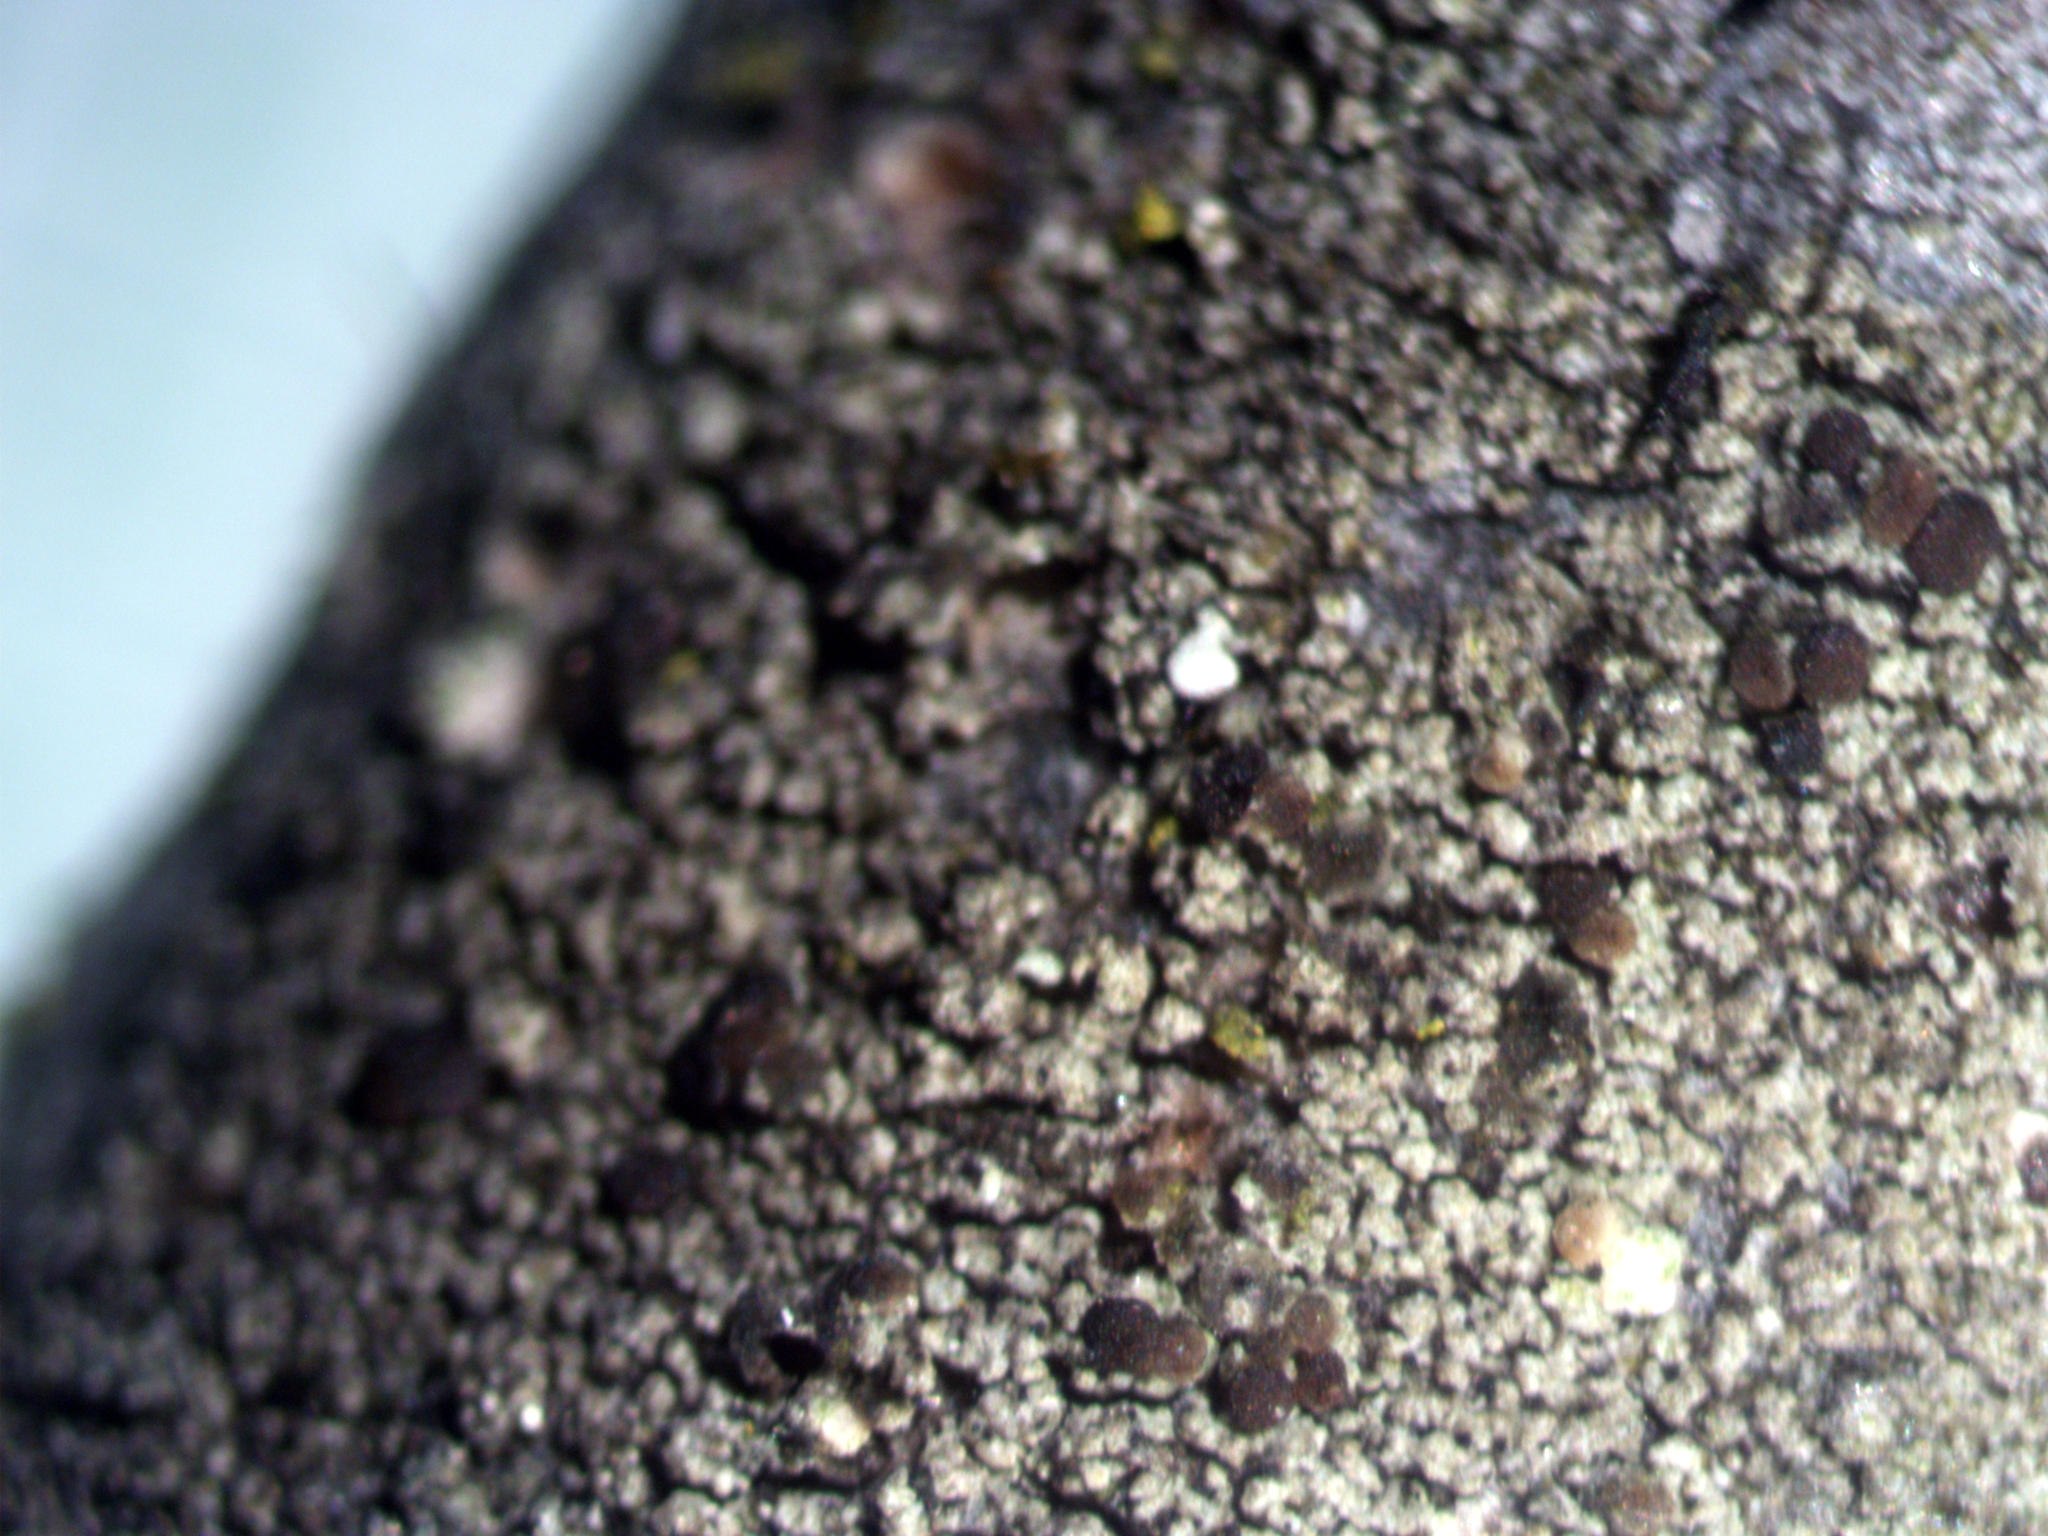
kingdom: Fungi
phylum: Ascomycota
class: Lecanoromycetes
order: Lecanorales
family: Lecanoraceae
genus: Traponora
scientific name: Traponora varians
